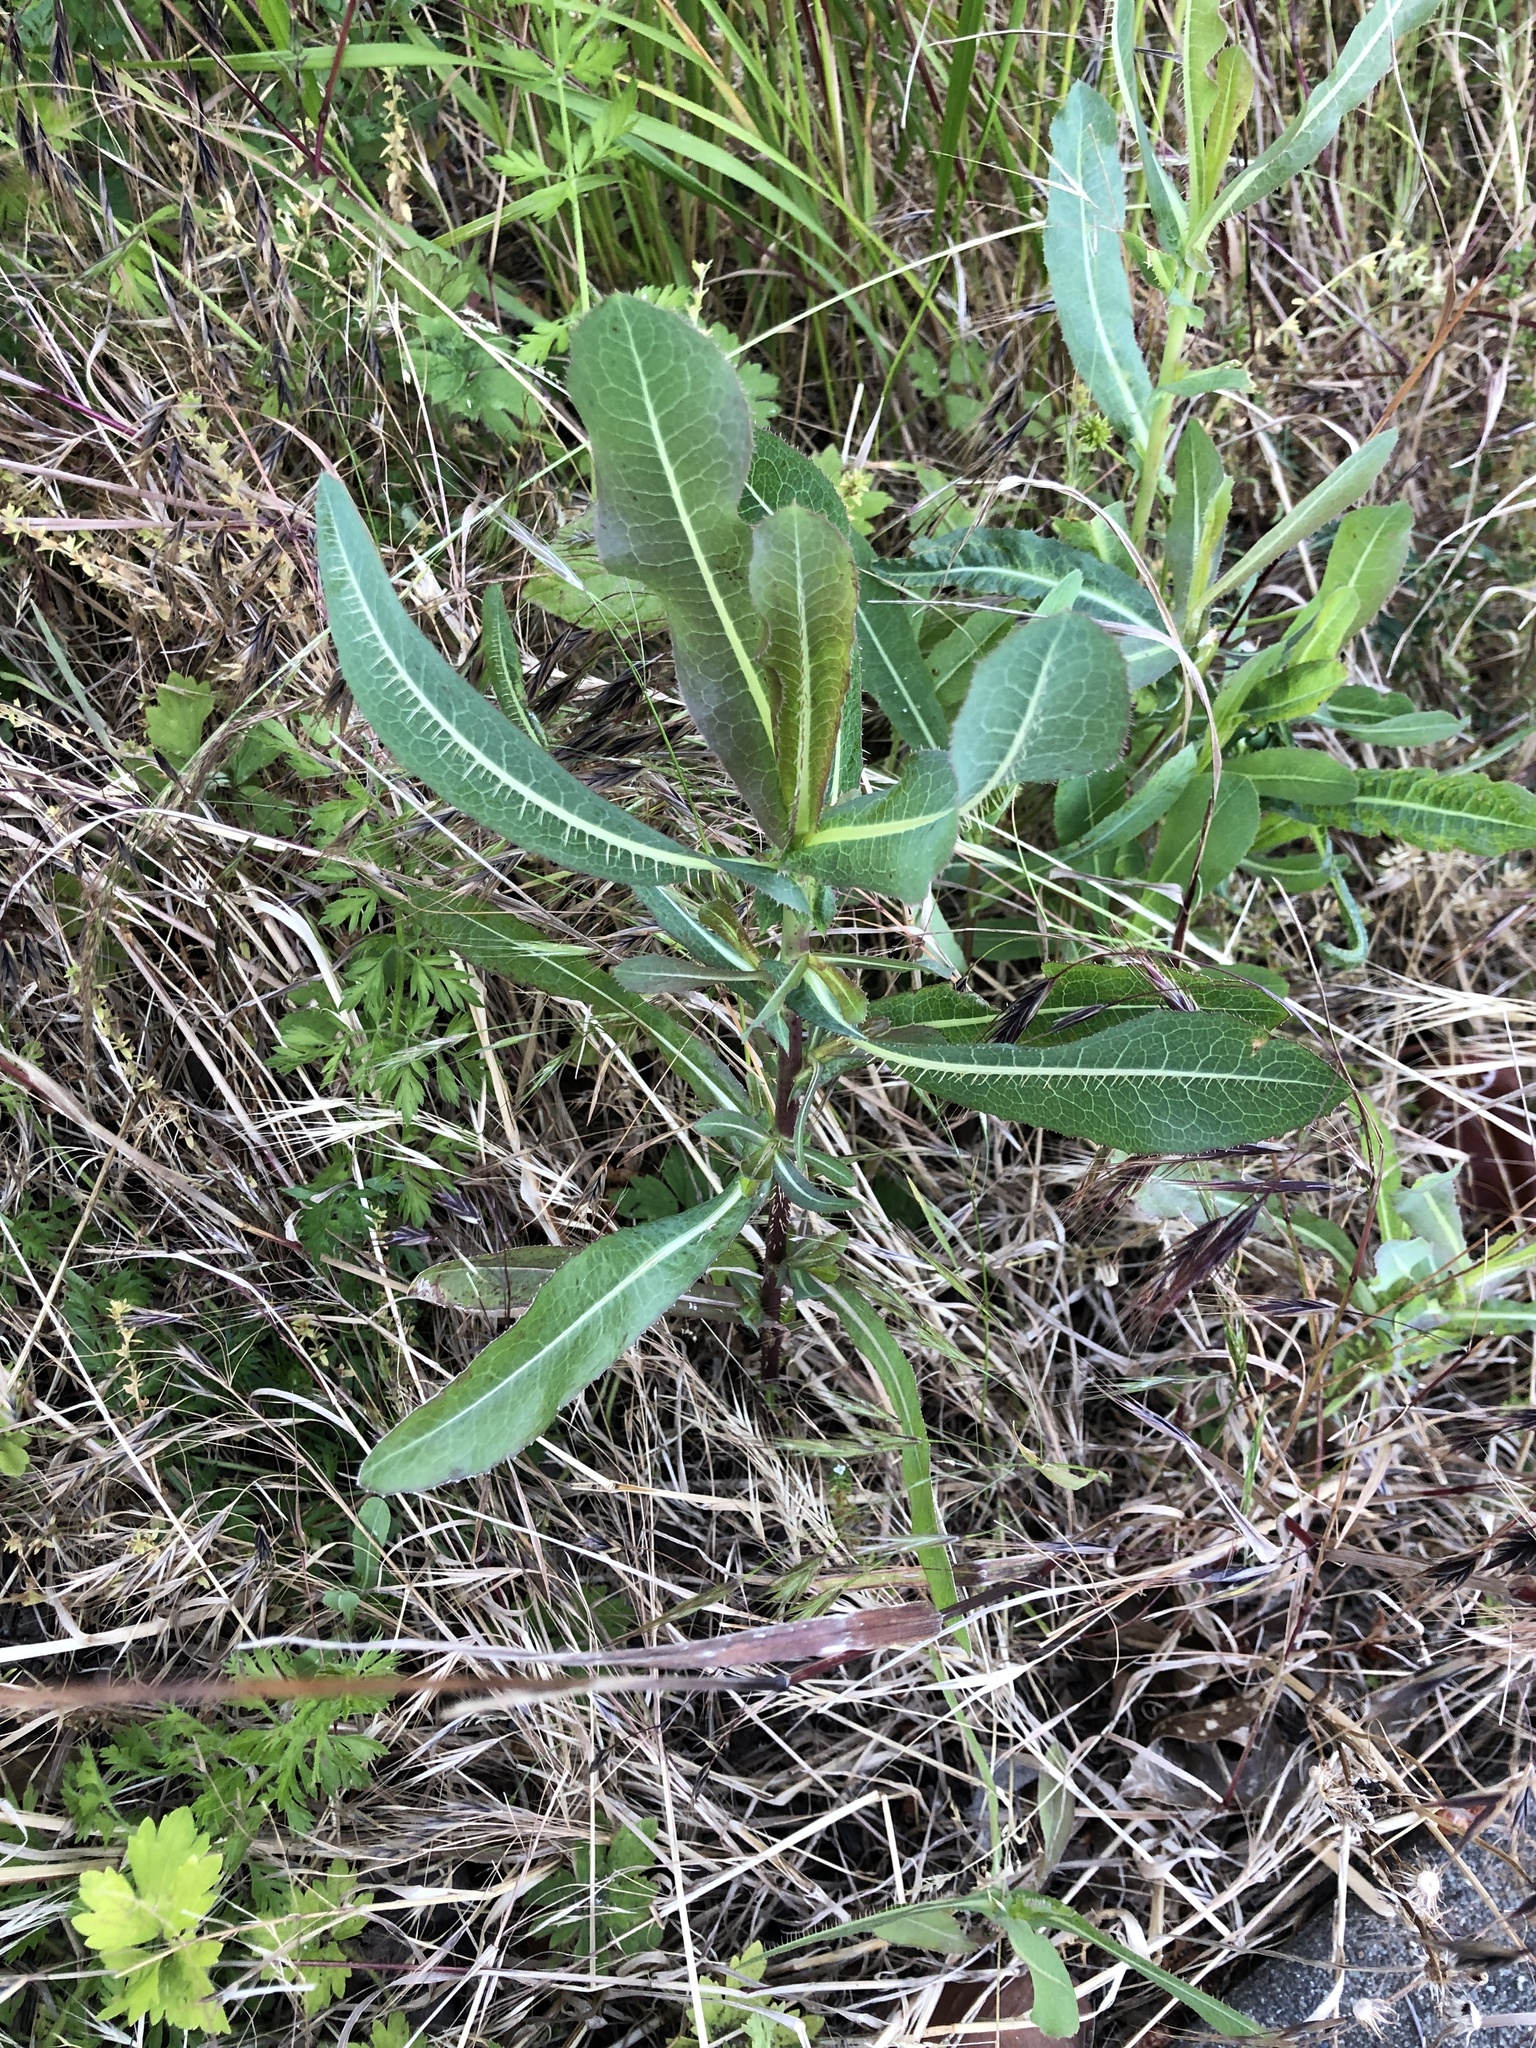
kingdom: Plantae
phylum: Tracheophyta
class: Magnoliopsida
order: Asterales
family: Asteraceae
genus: Lactuca
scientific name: Lactuca serriola
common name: Prickly lettuce
